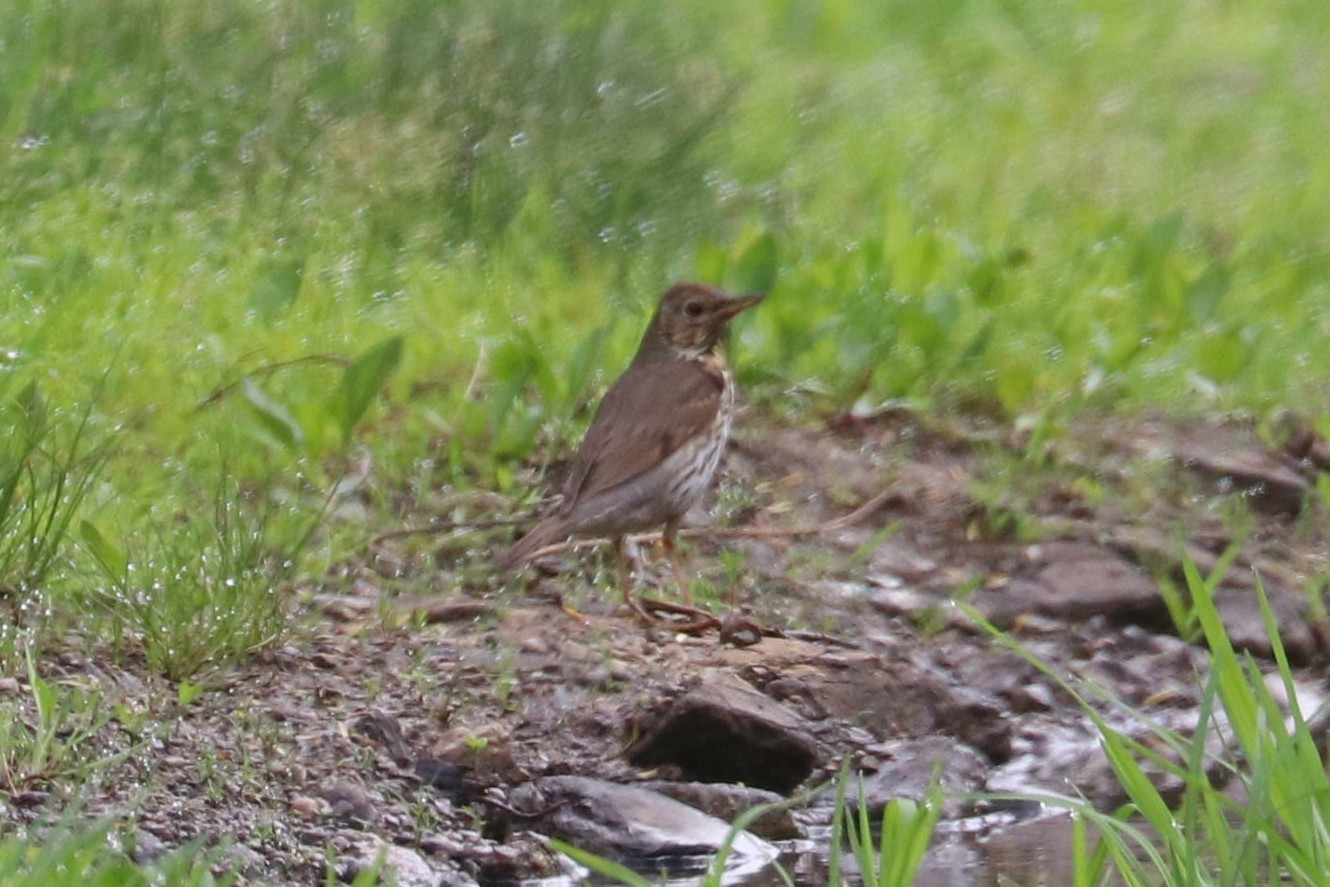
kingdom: Animalia
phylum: Chordata
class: Aves
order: Passeriformes
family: Turdidae
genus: Turdus
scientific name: Turdus philomelos
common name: Song thrush
